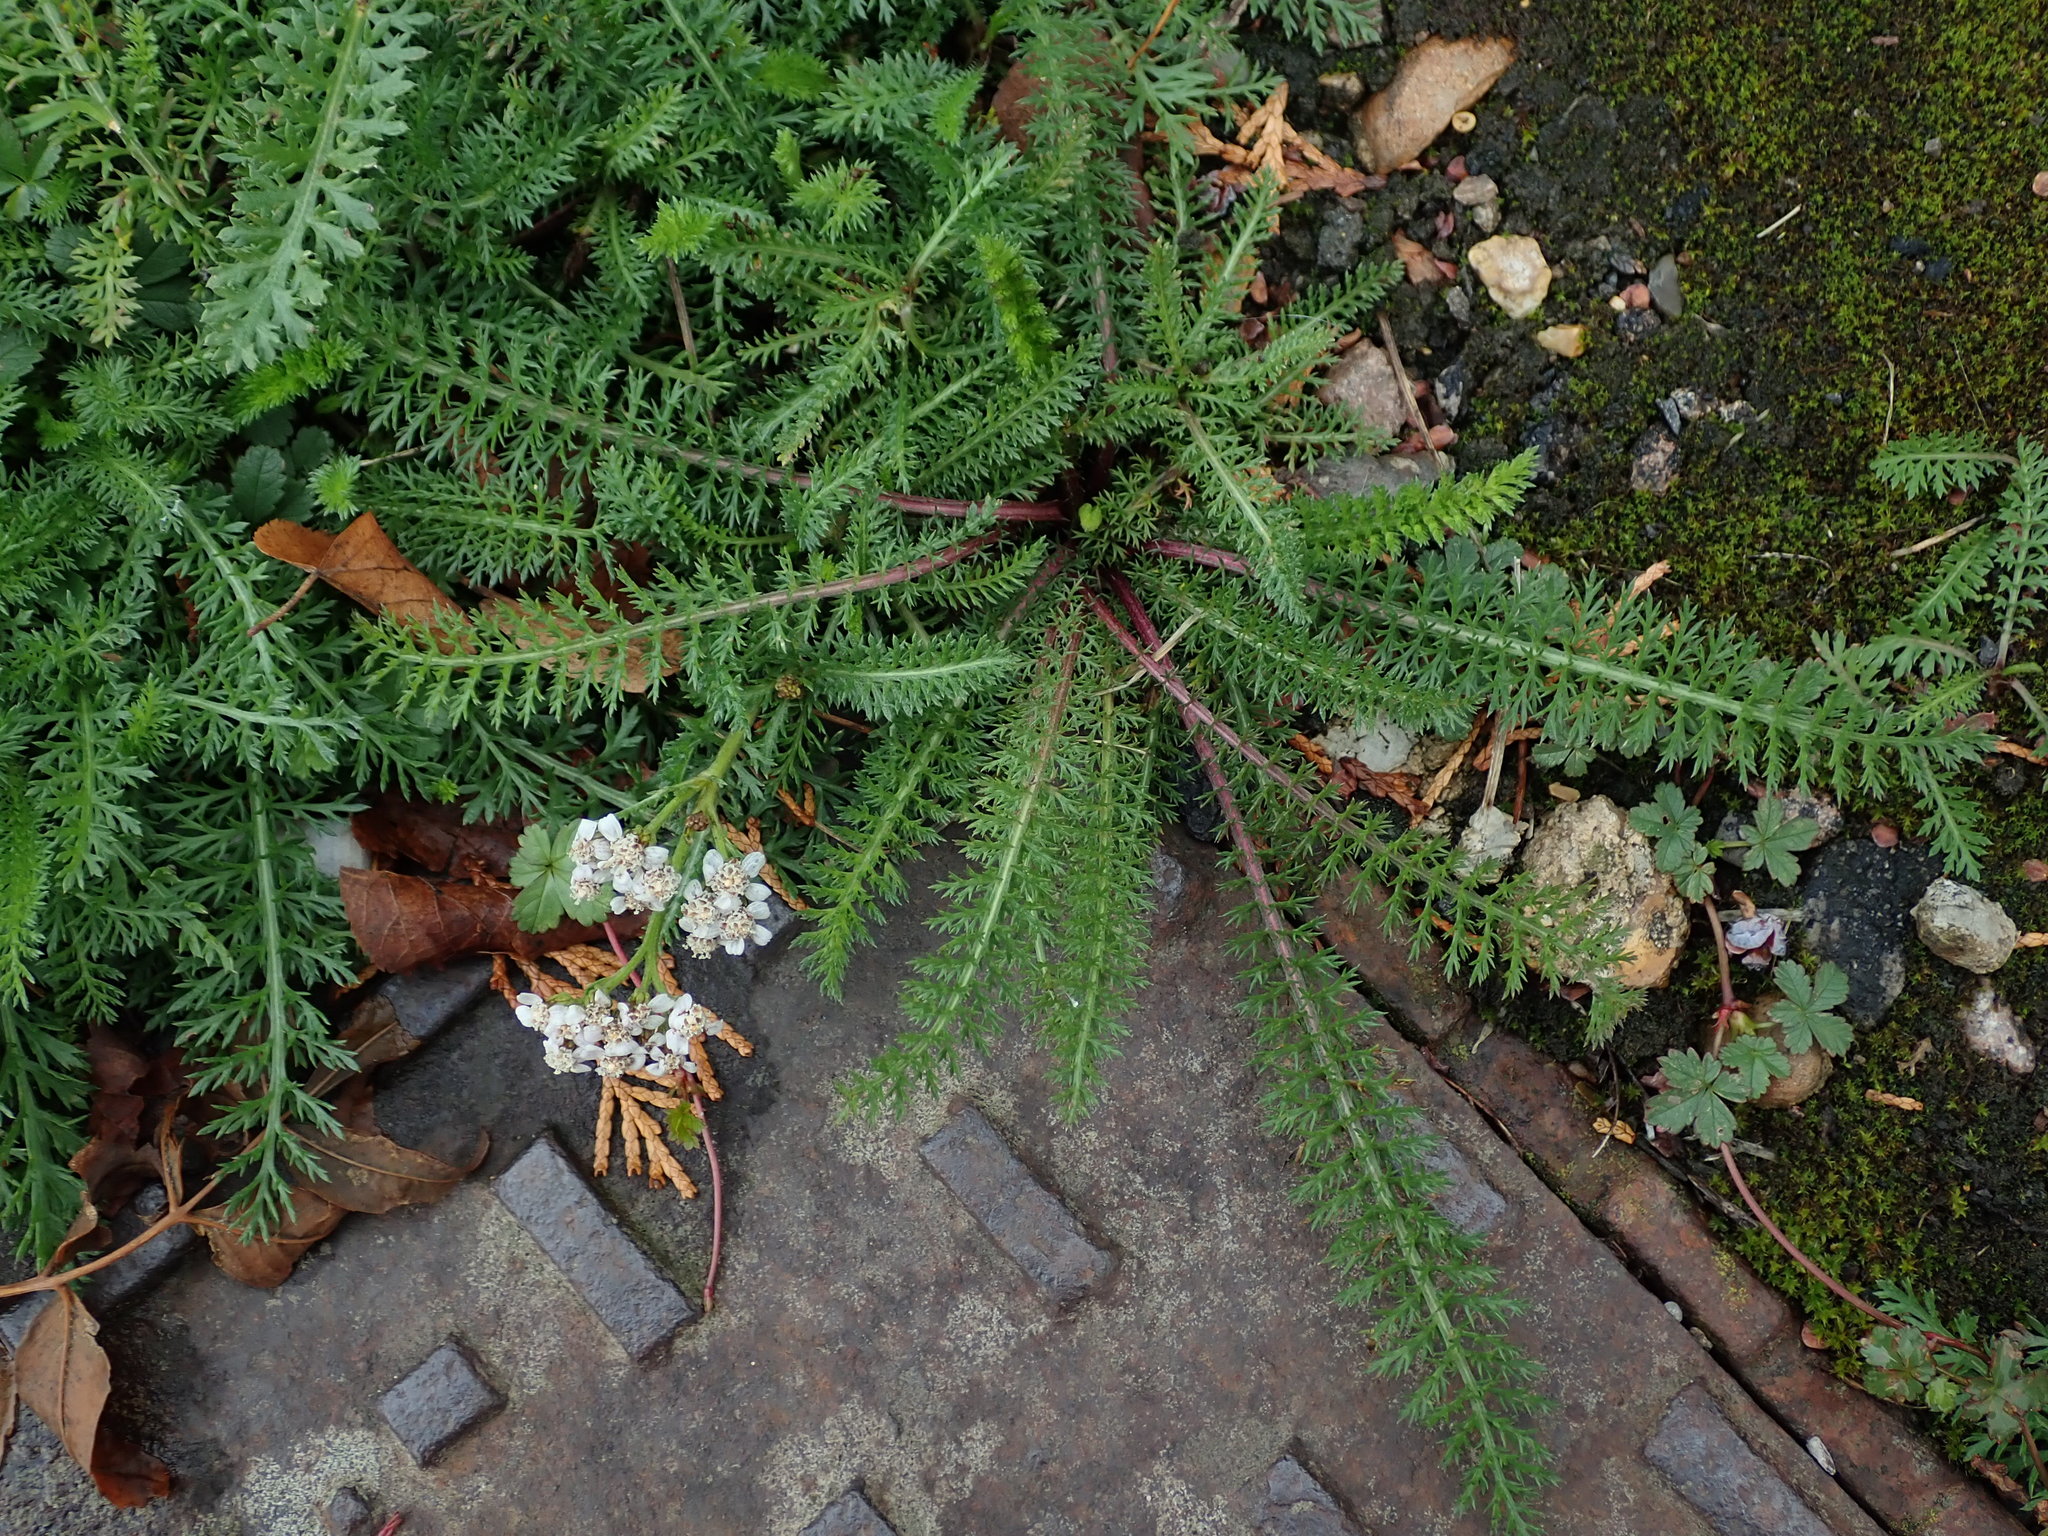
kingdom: Plantae
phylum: Tracheophyta
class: Magnoliopsida
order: Asterales
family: Asteraceae
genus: Achillea
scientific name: Achillea millefolium
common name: Yarrow
